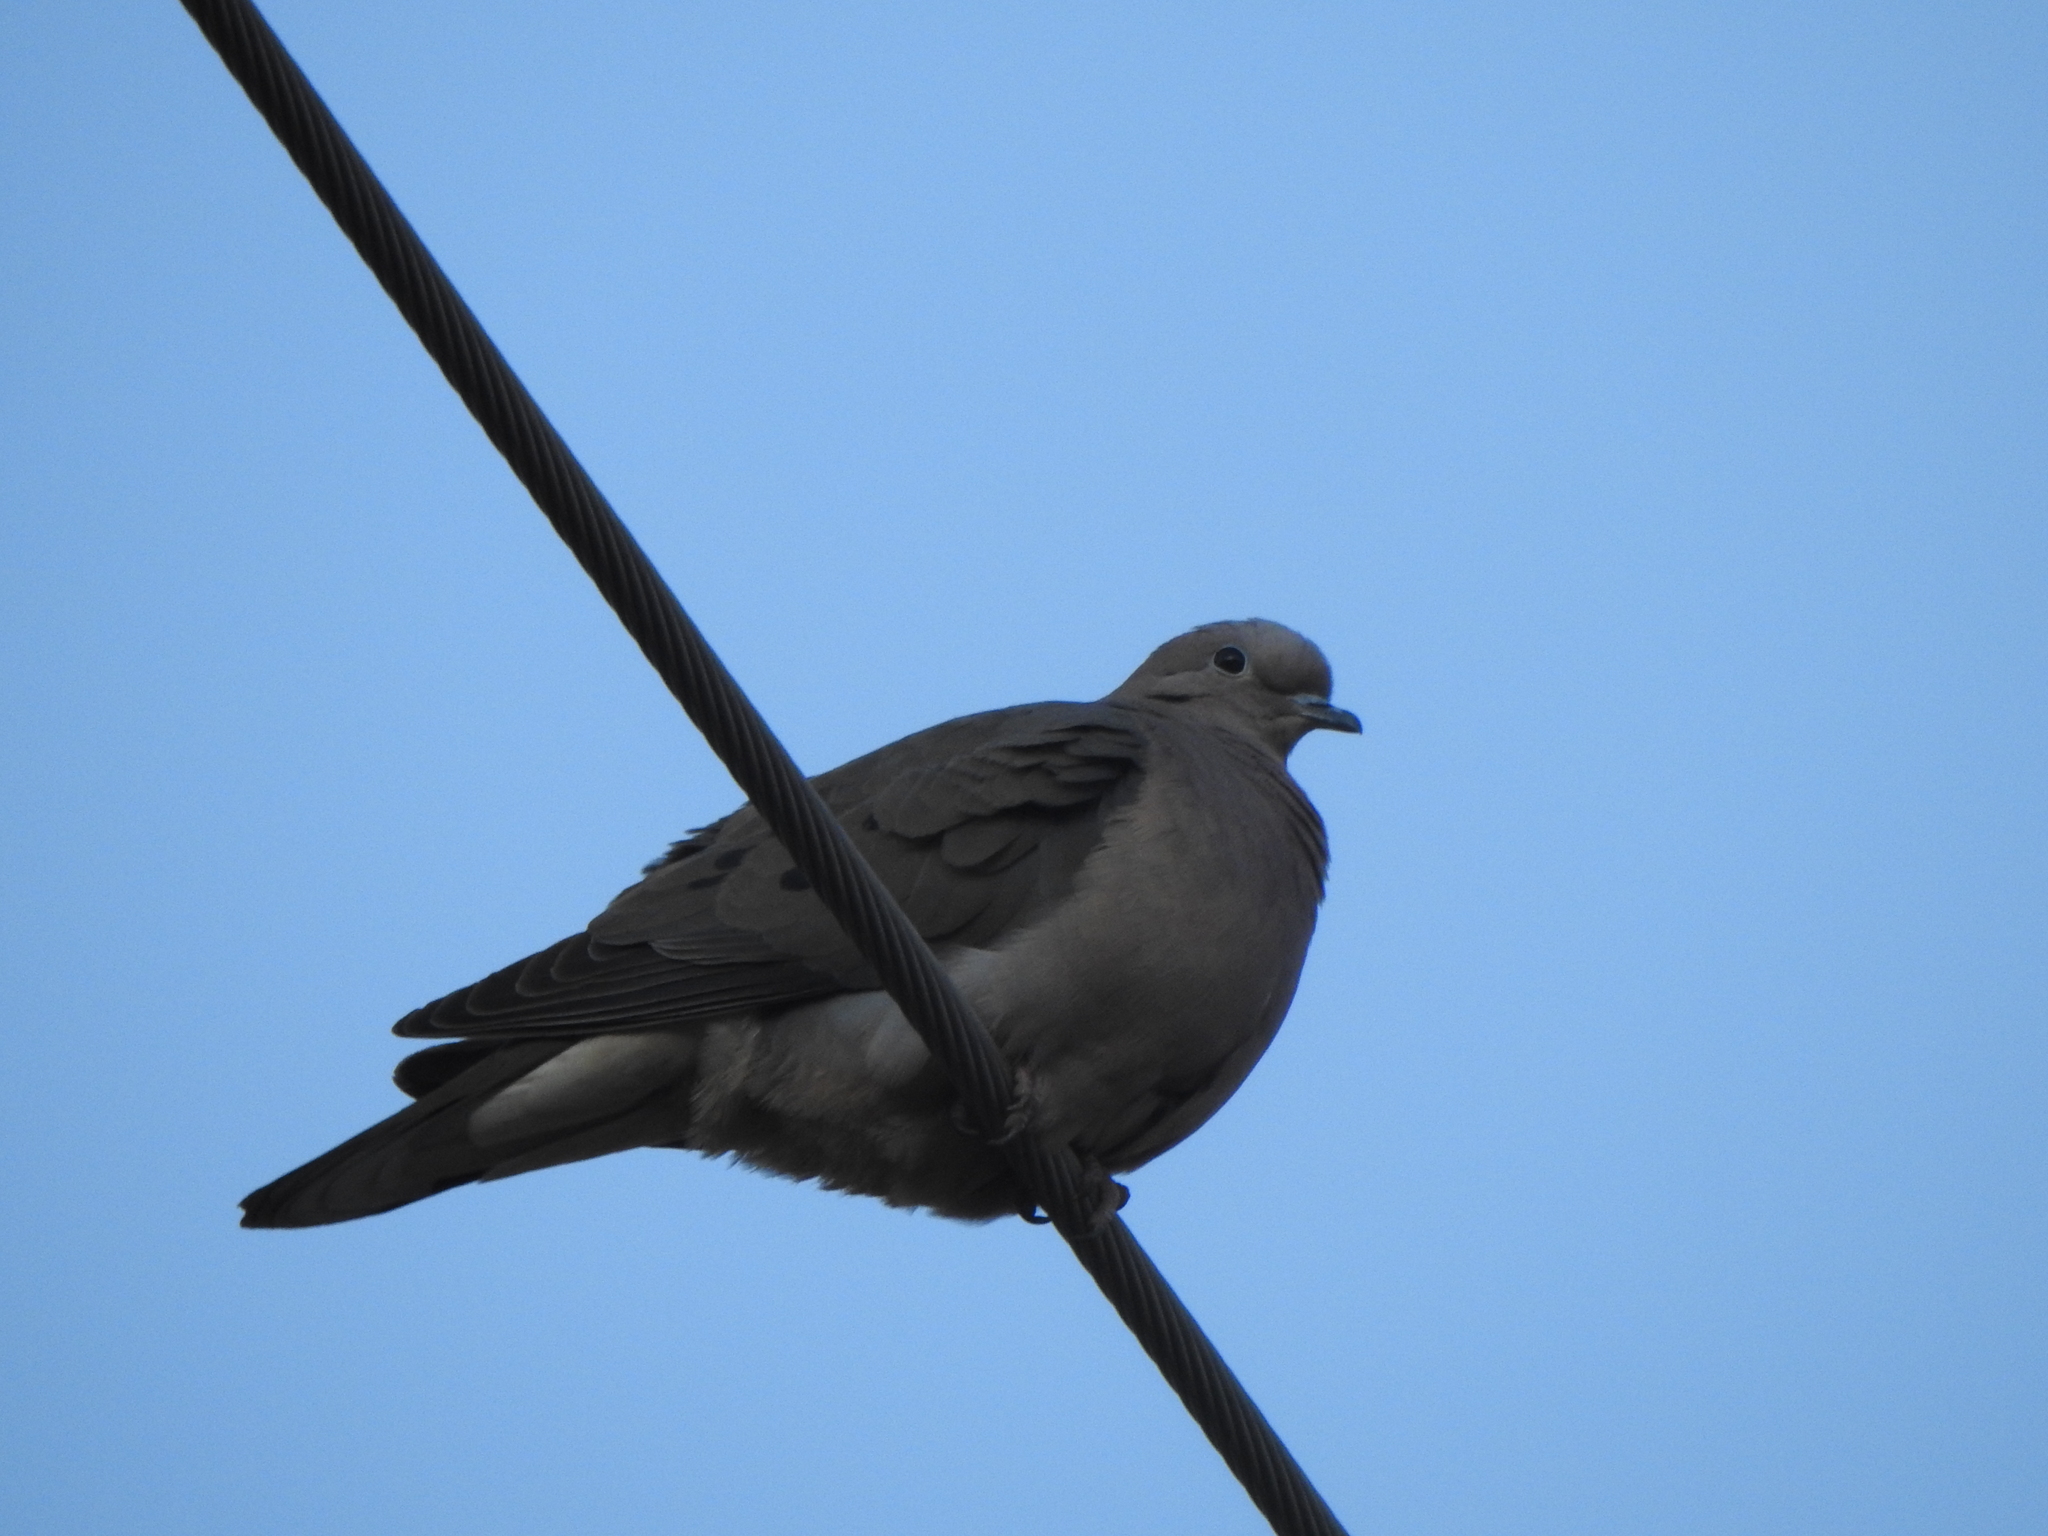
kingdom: Animalia
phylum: Chordata
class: Aves
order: Columbiformes
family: Columbidae
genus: Zenaida
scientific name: Zenaida auriculata
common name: Eared dove
